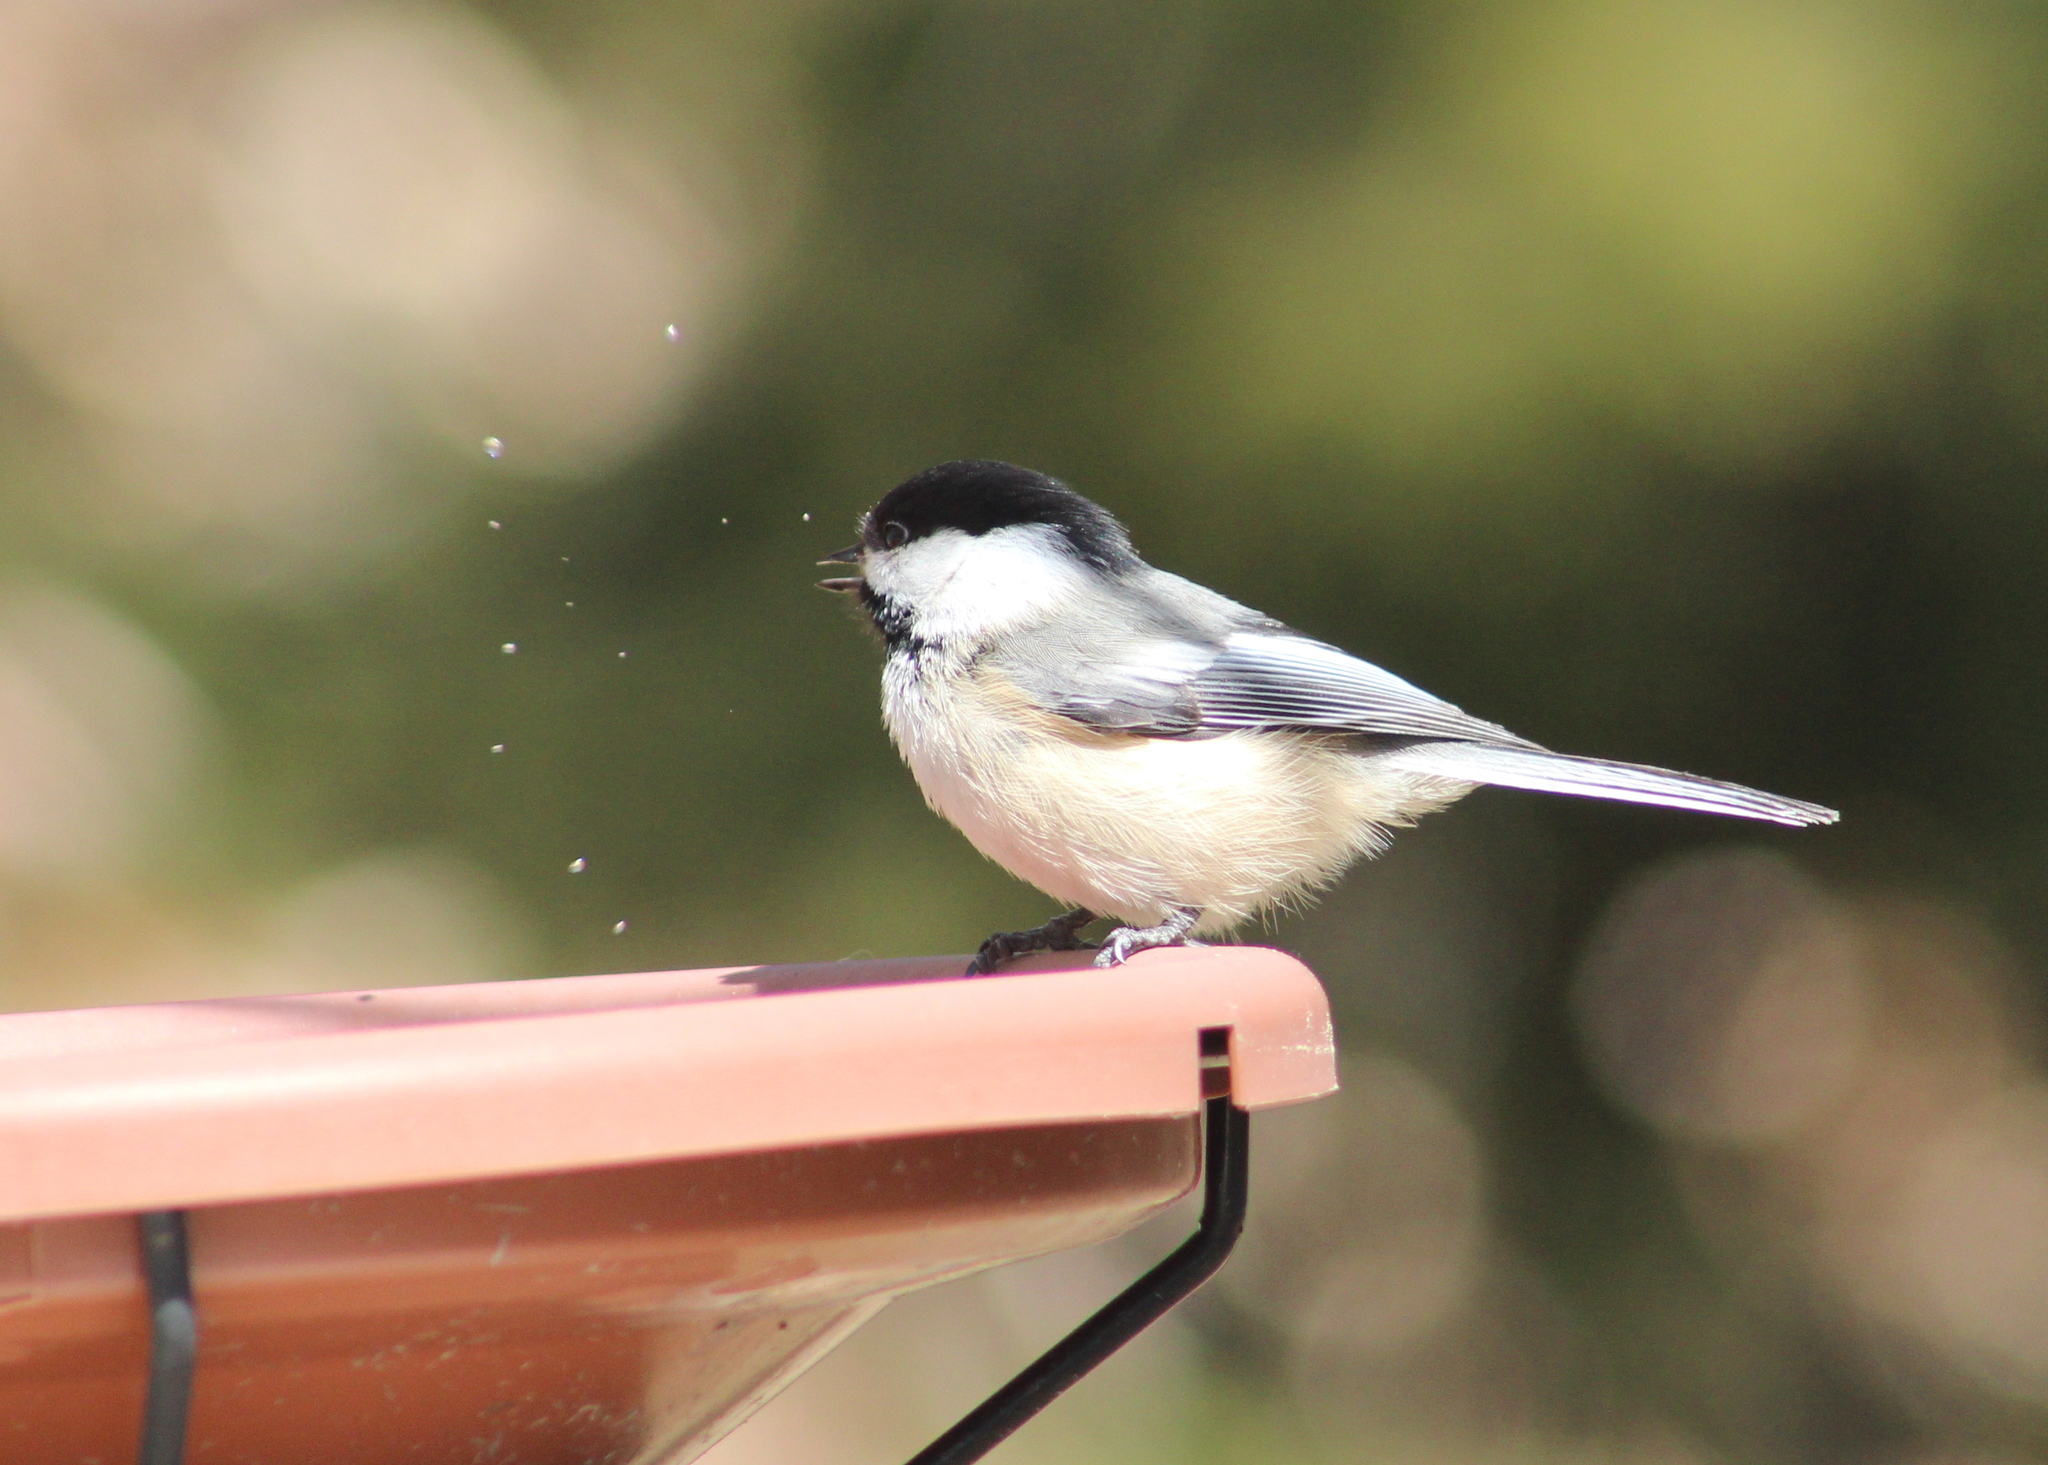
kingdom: Animalia
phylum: Chordata
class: Aves
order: Passeriformes
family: Paridae
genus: Poecile
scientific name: Poecile atricapillus
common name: Black-capped chickadee
